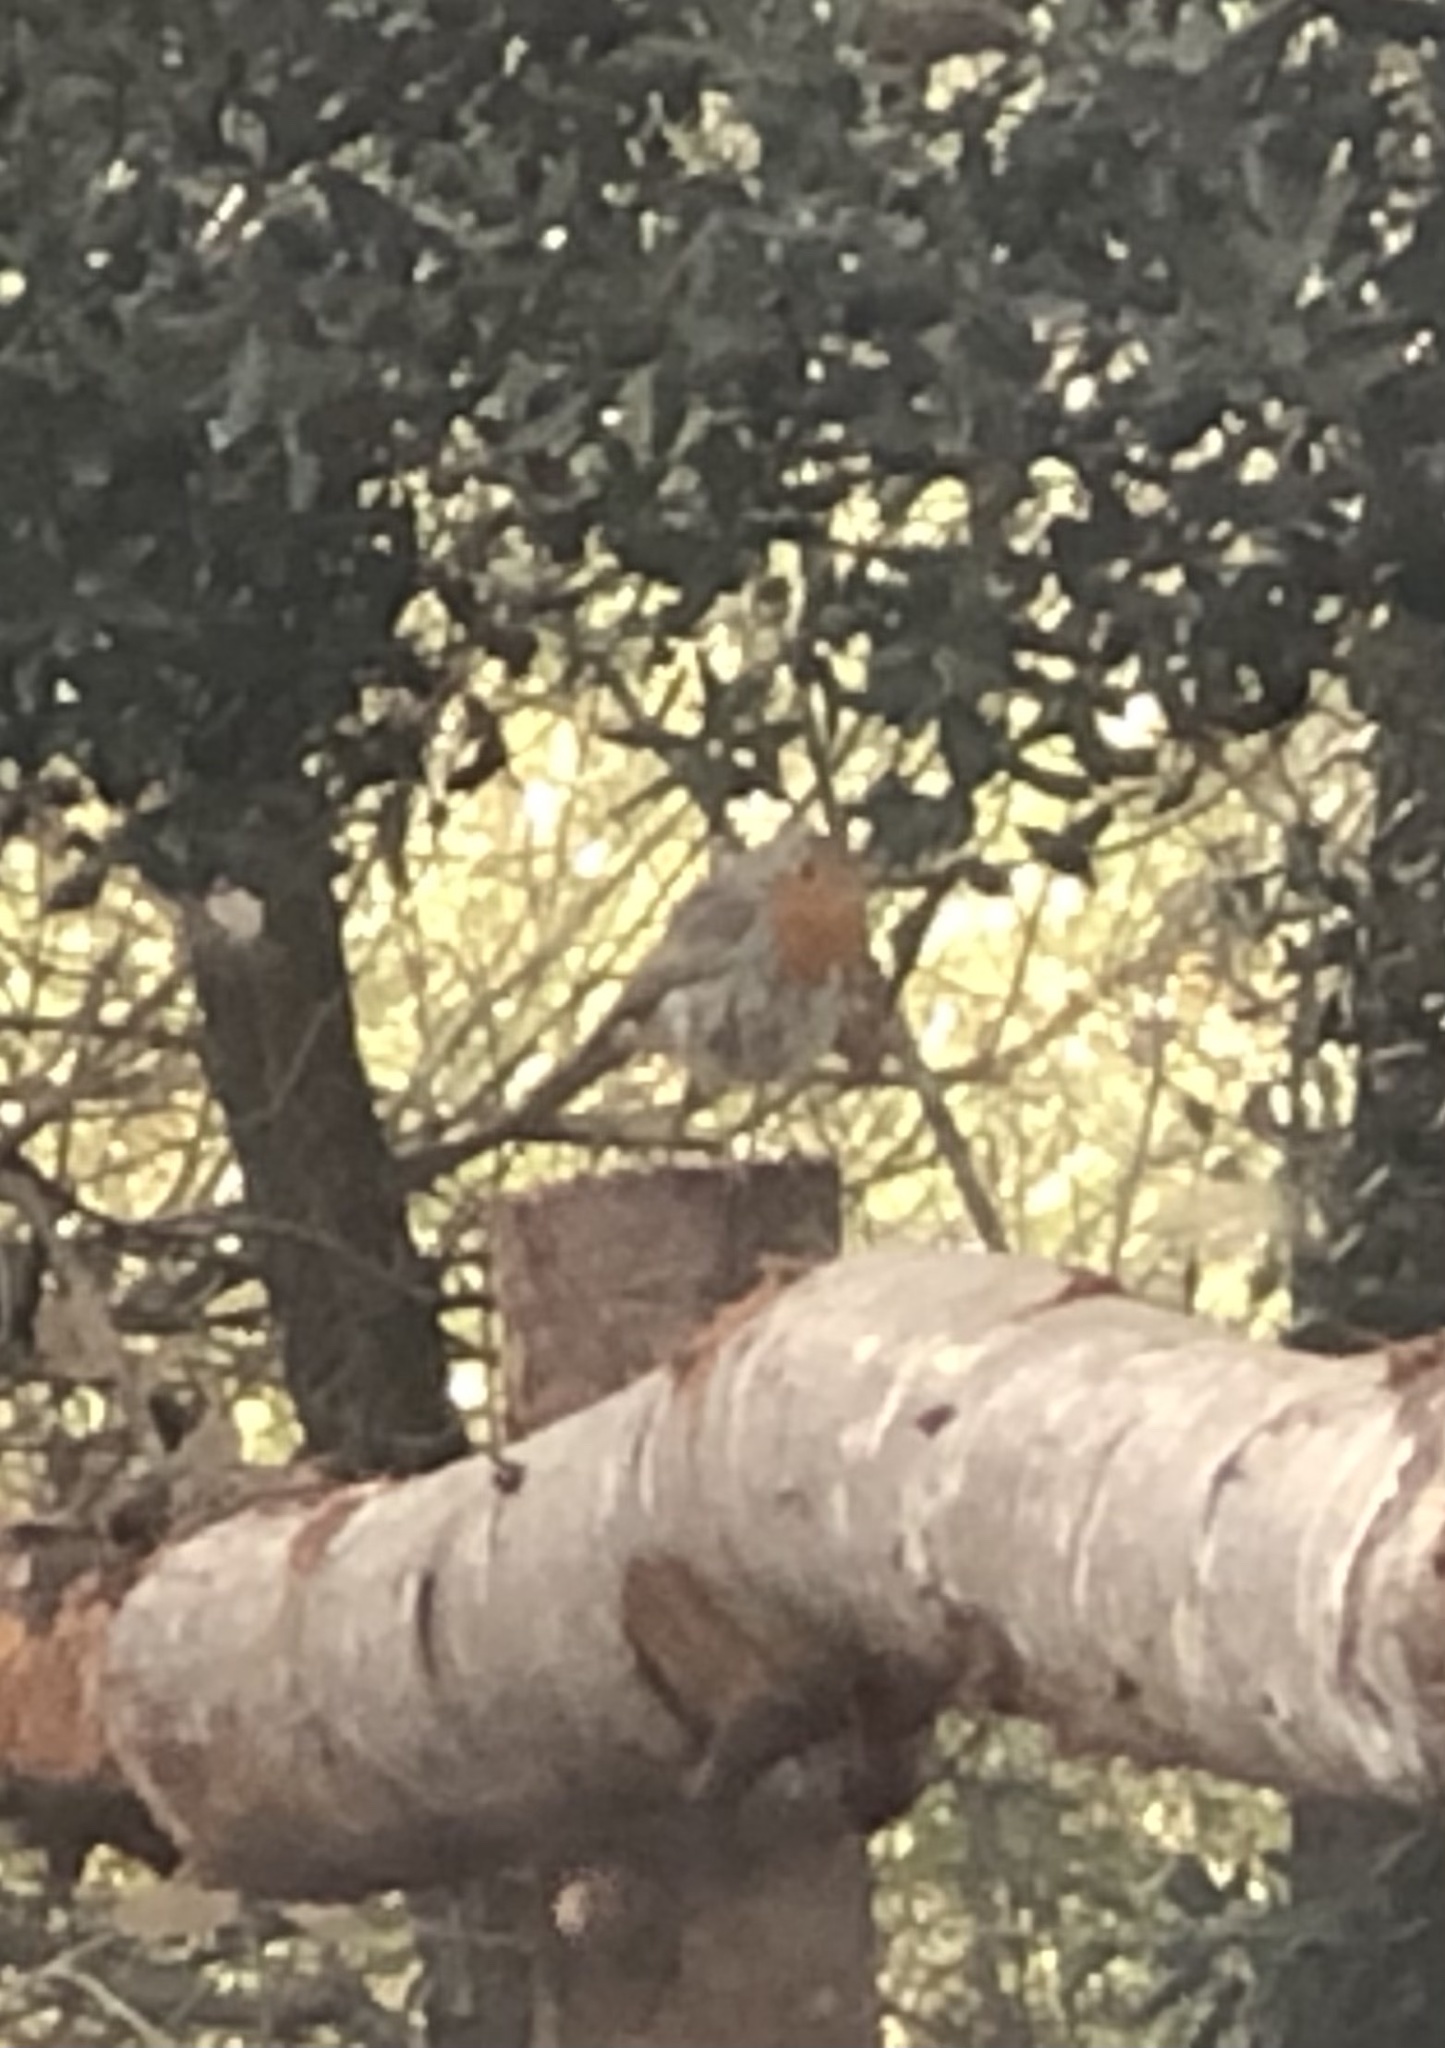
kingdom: Animalia
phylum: Chordata
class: Aves
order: Passeriformes
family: Muscicapidae
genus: Erithacus
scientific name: Erithacus rubecula
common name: European robin
